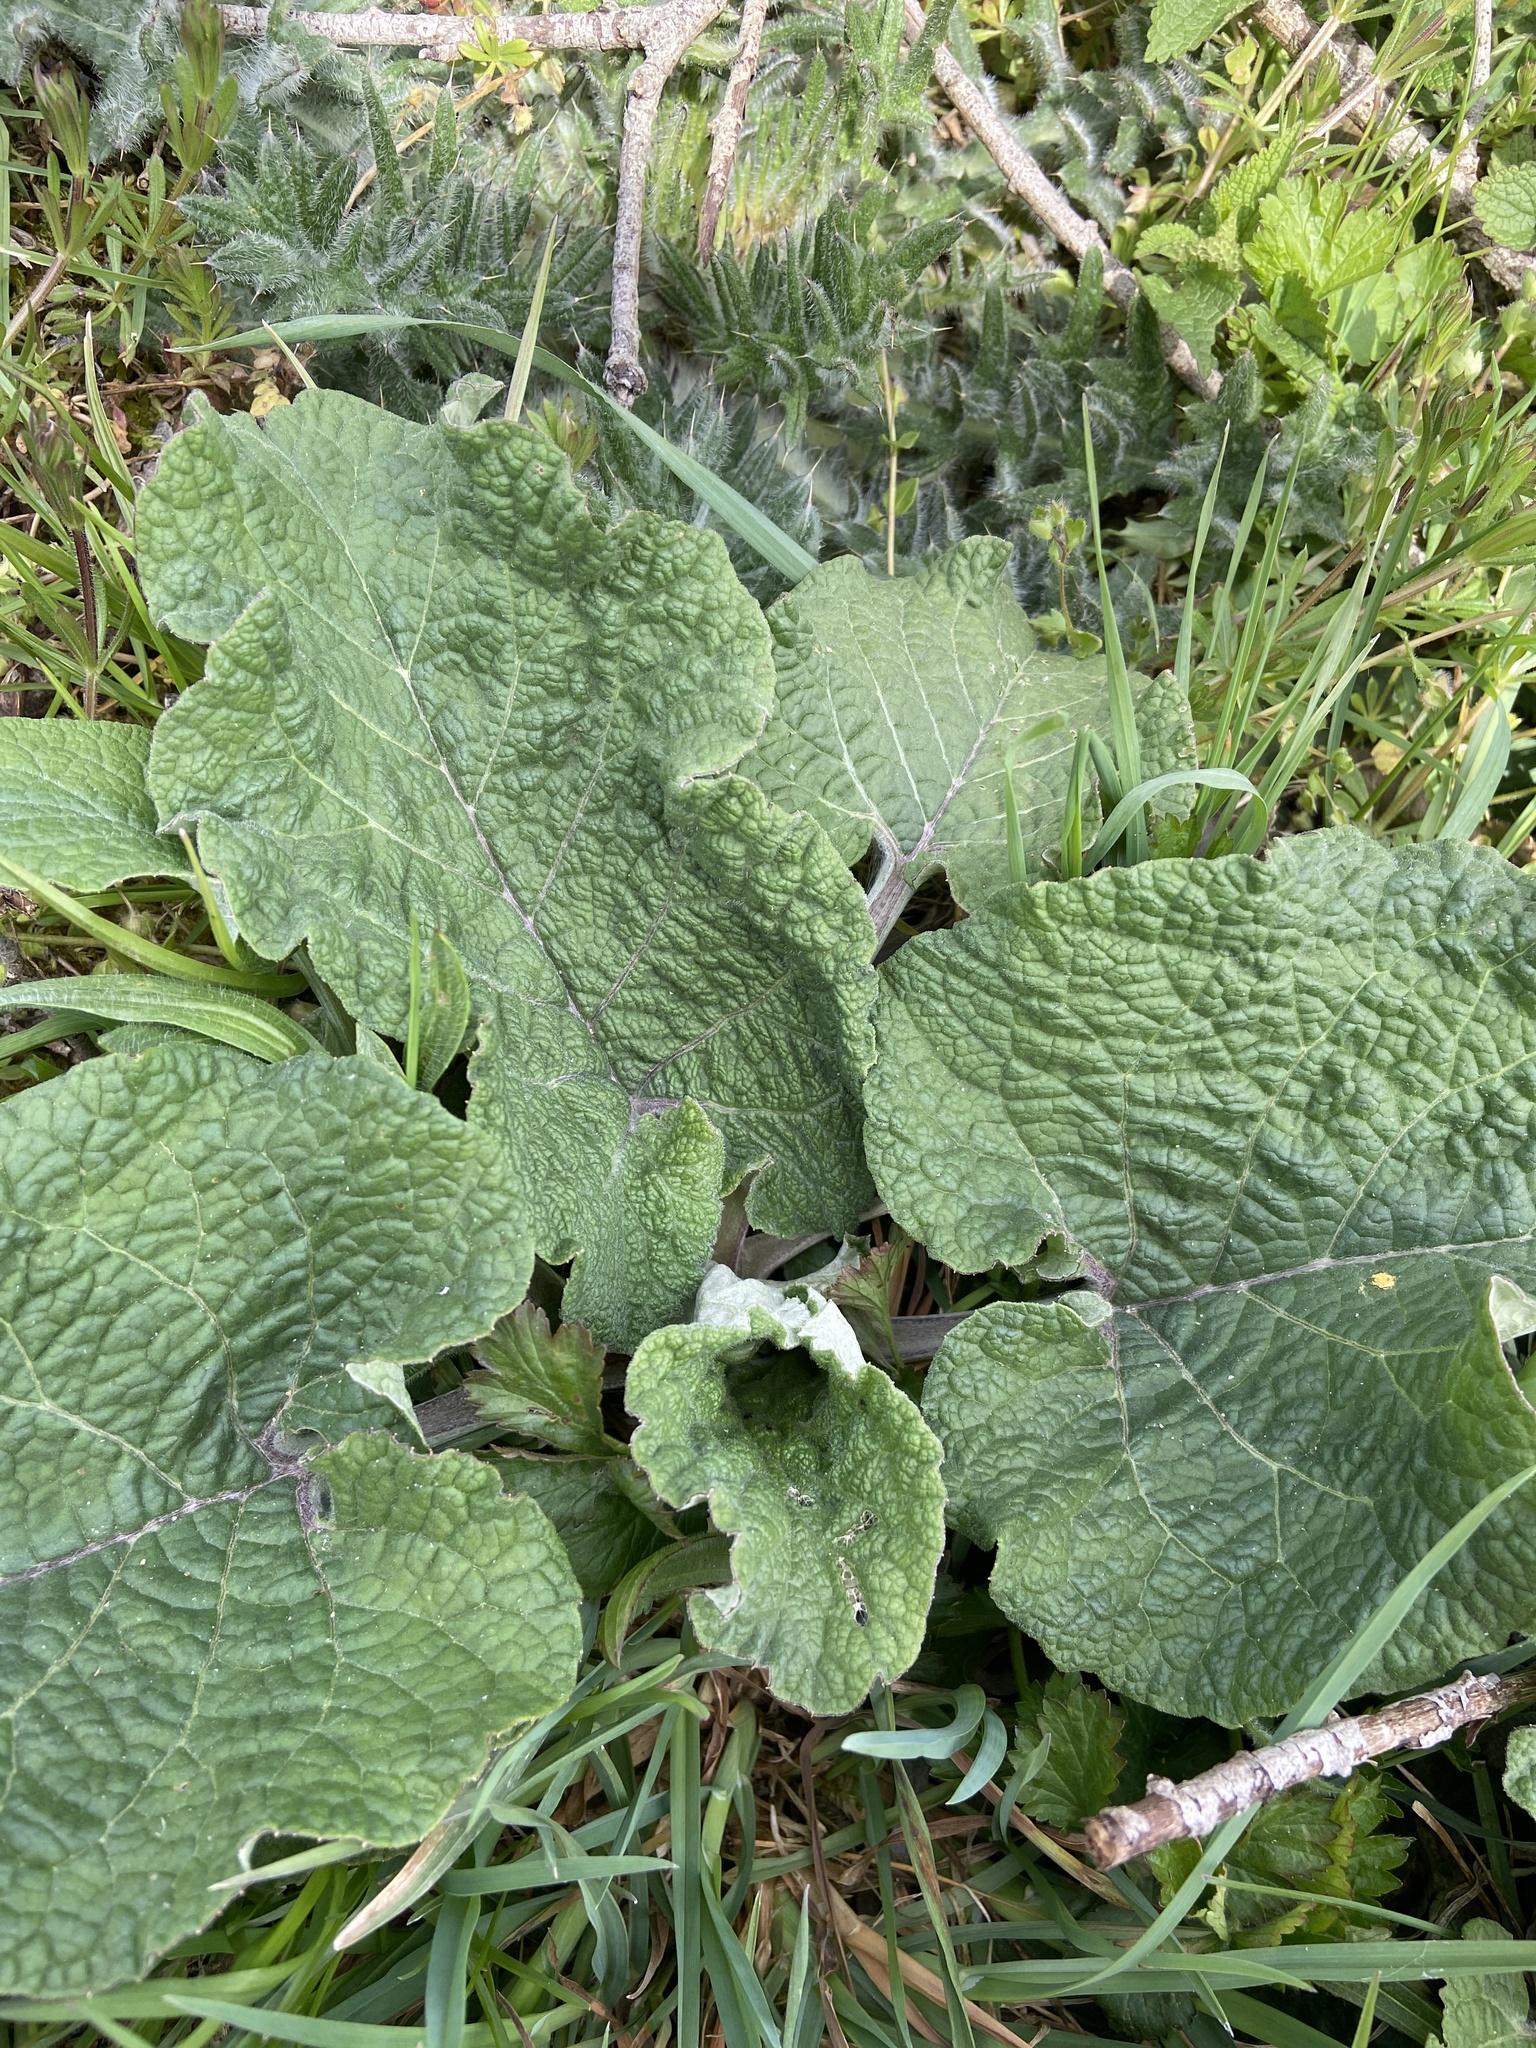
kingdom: Plantae
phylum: Tracheophyta
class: Magnoliopsida
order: Asterales
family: Asteraceae
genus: Arctium
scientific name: Arctium lappa
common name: Greater burdock
